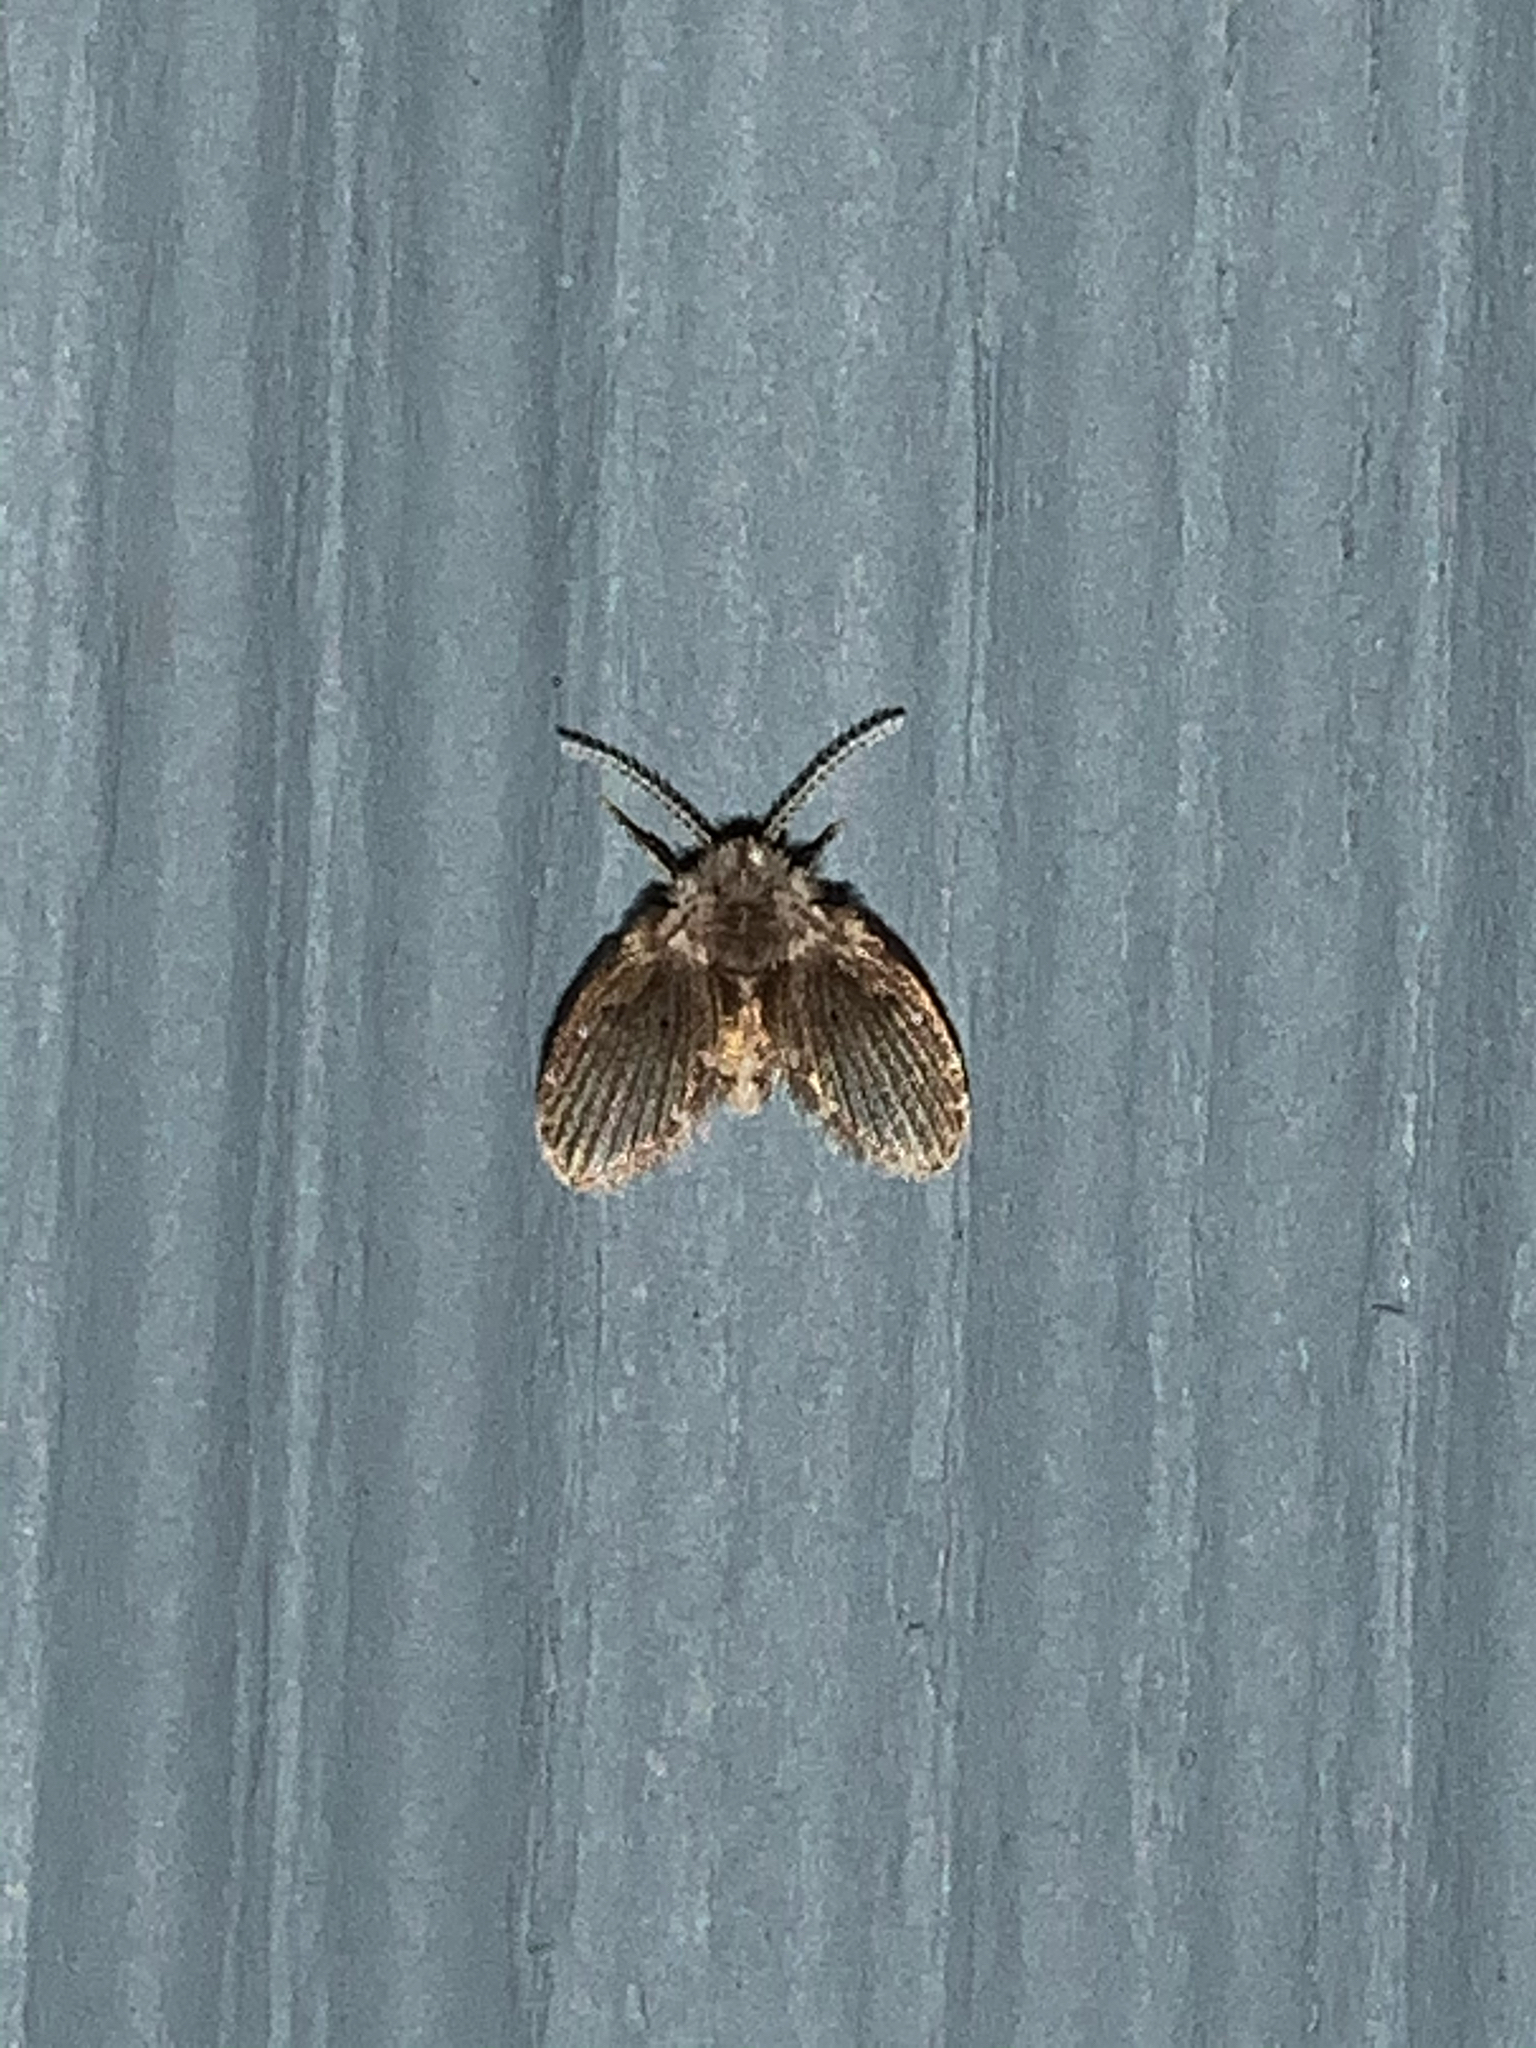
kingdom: Animalia
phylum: Arthropoda
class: Insecta
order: Diptera
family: Psychodidae
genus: Clogmia
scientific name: Clogmia albipunctatus
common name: White-spotted moth fly
